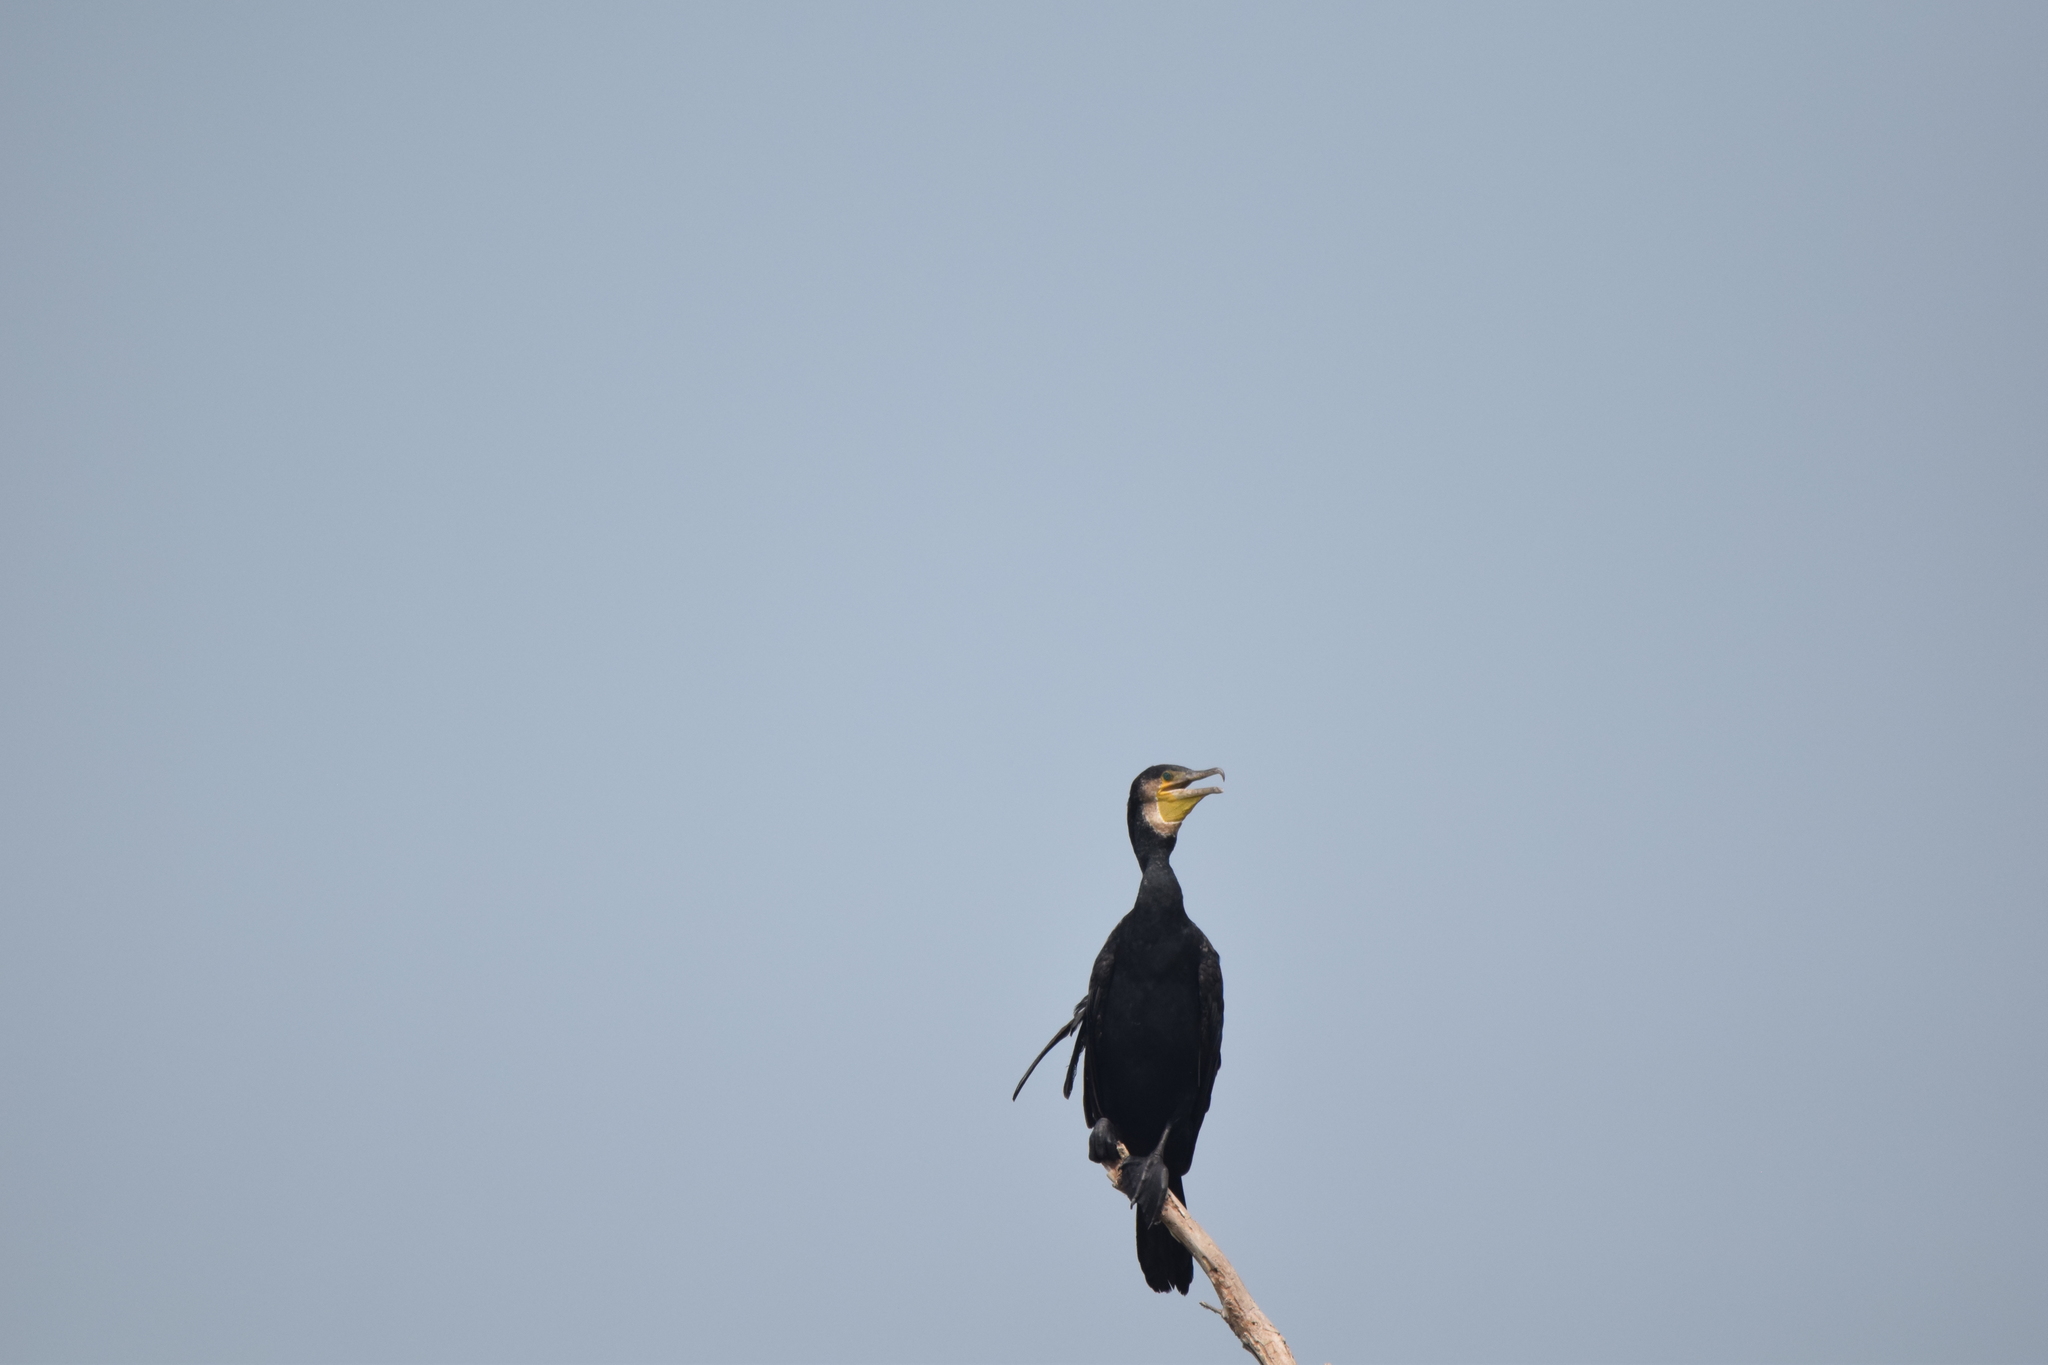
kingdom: Animalia
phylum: Chordata
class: Aves
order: Suliformes
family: Phalacrocoracidae
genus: Phalacrocorax
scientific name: Phalacrocorax carbo
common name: Great cormorant
